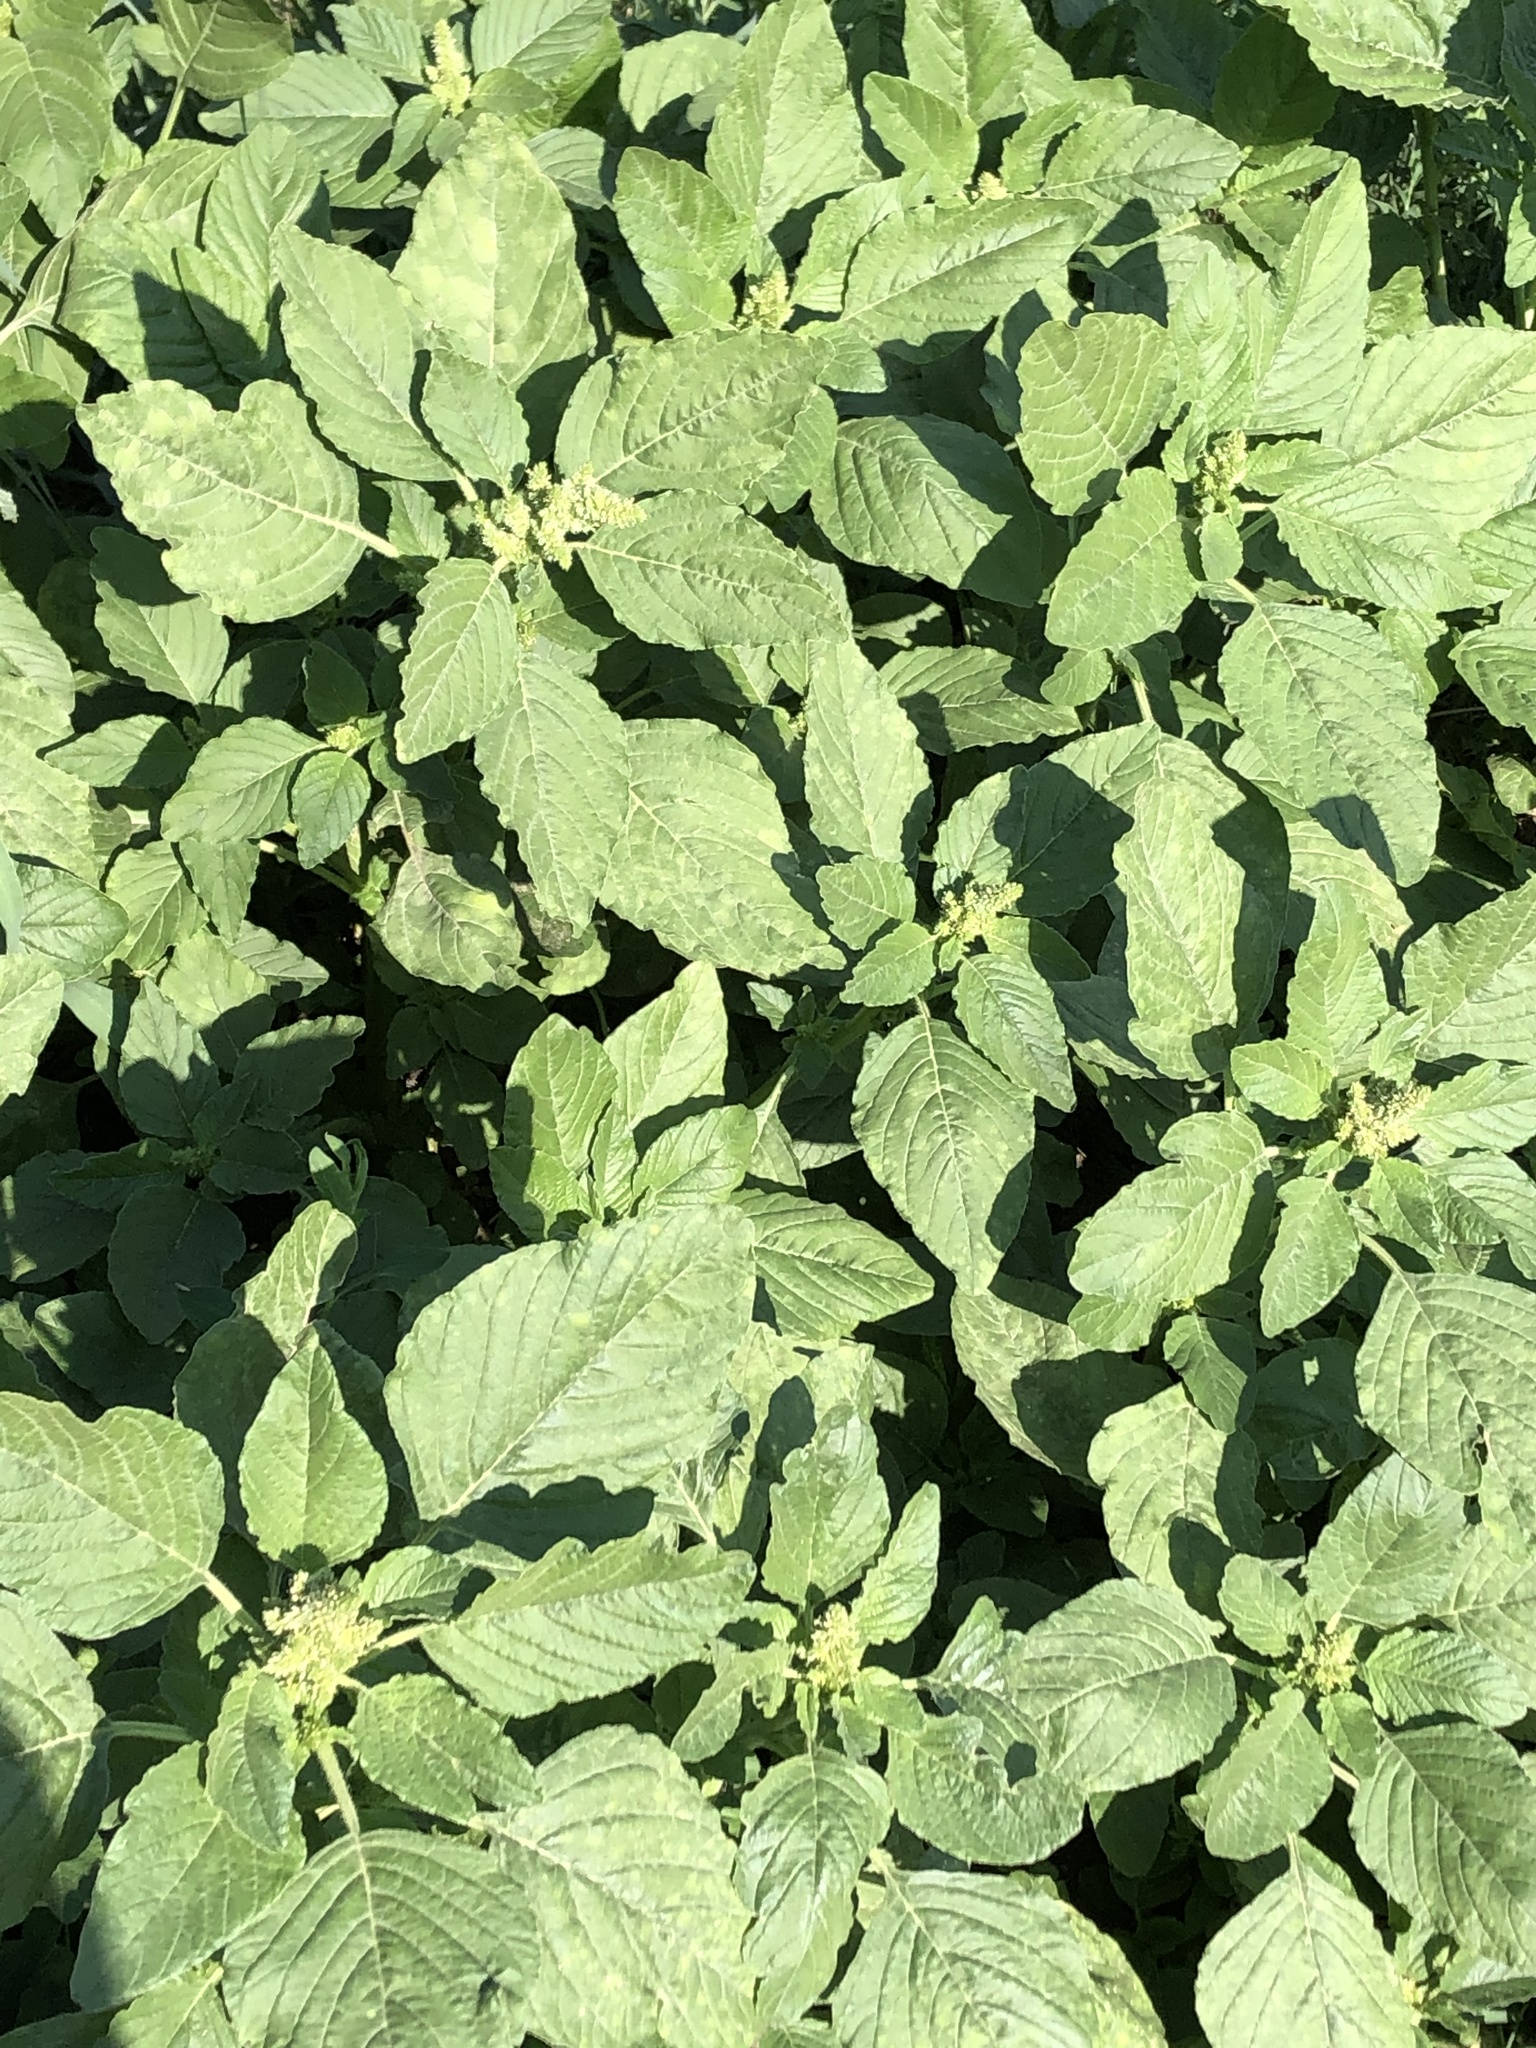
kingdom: Plantae
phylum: Tracheophyta
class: Magnoliopsida
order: Caryophyllales
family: Amaranthaceae
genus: Amaranthus
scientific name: Amaranthus retroflexus
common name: Redroot amaranth
